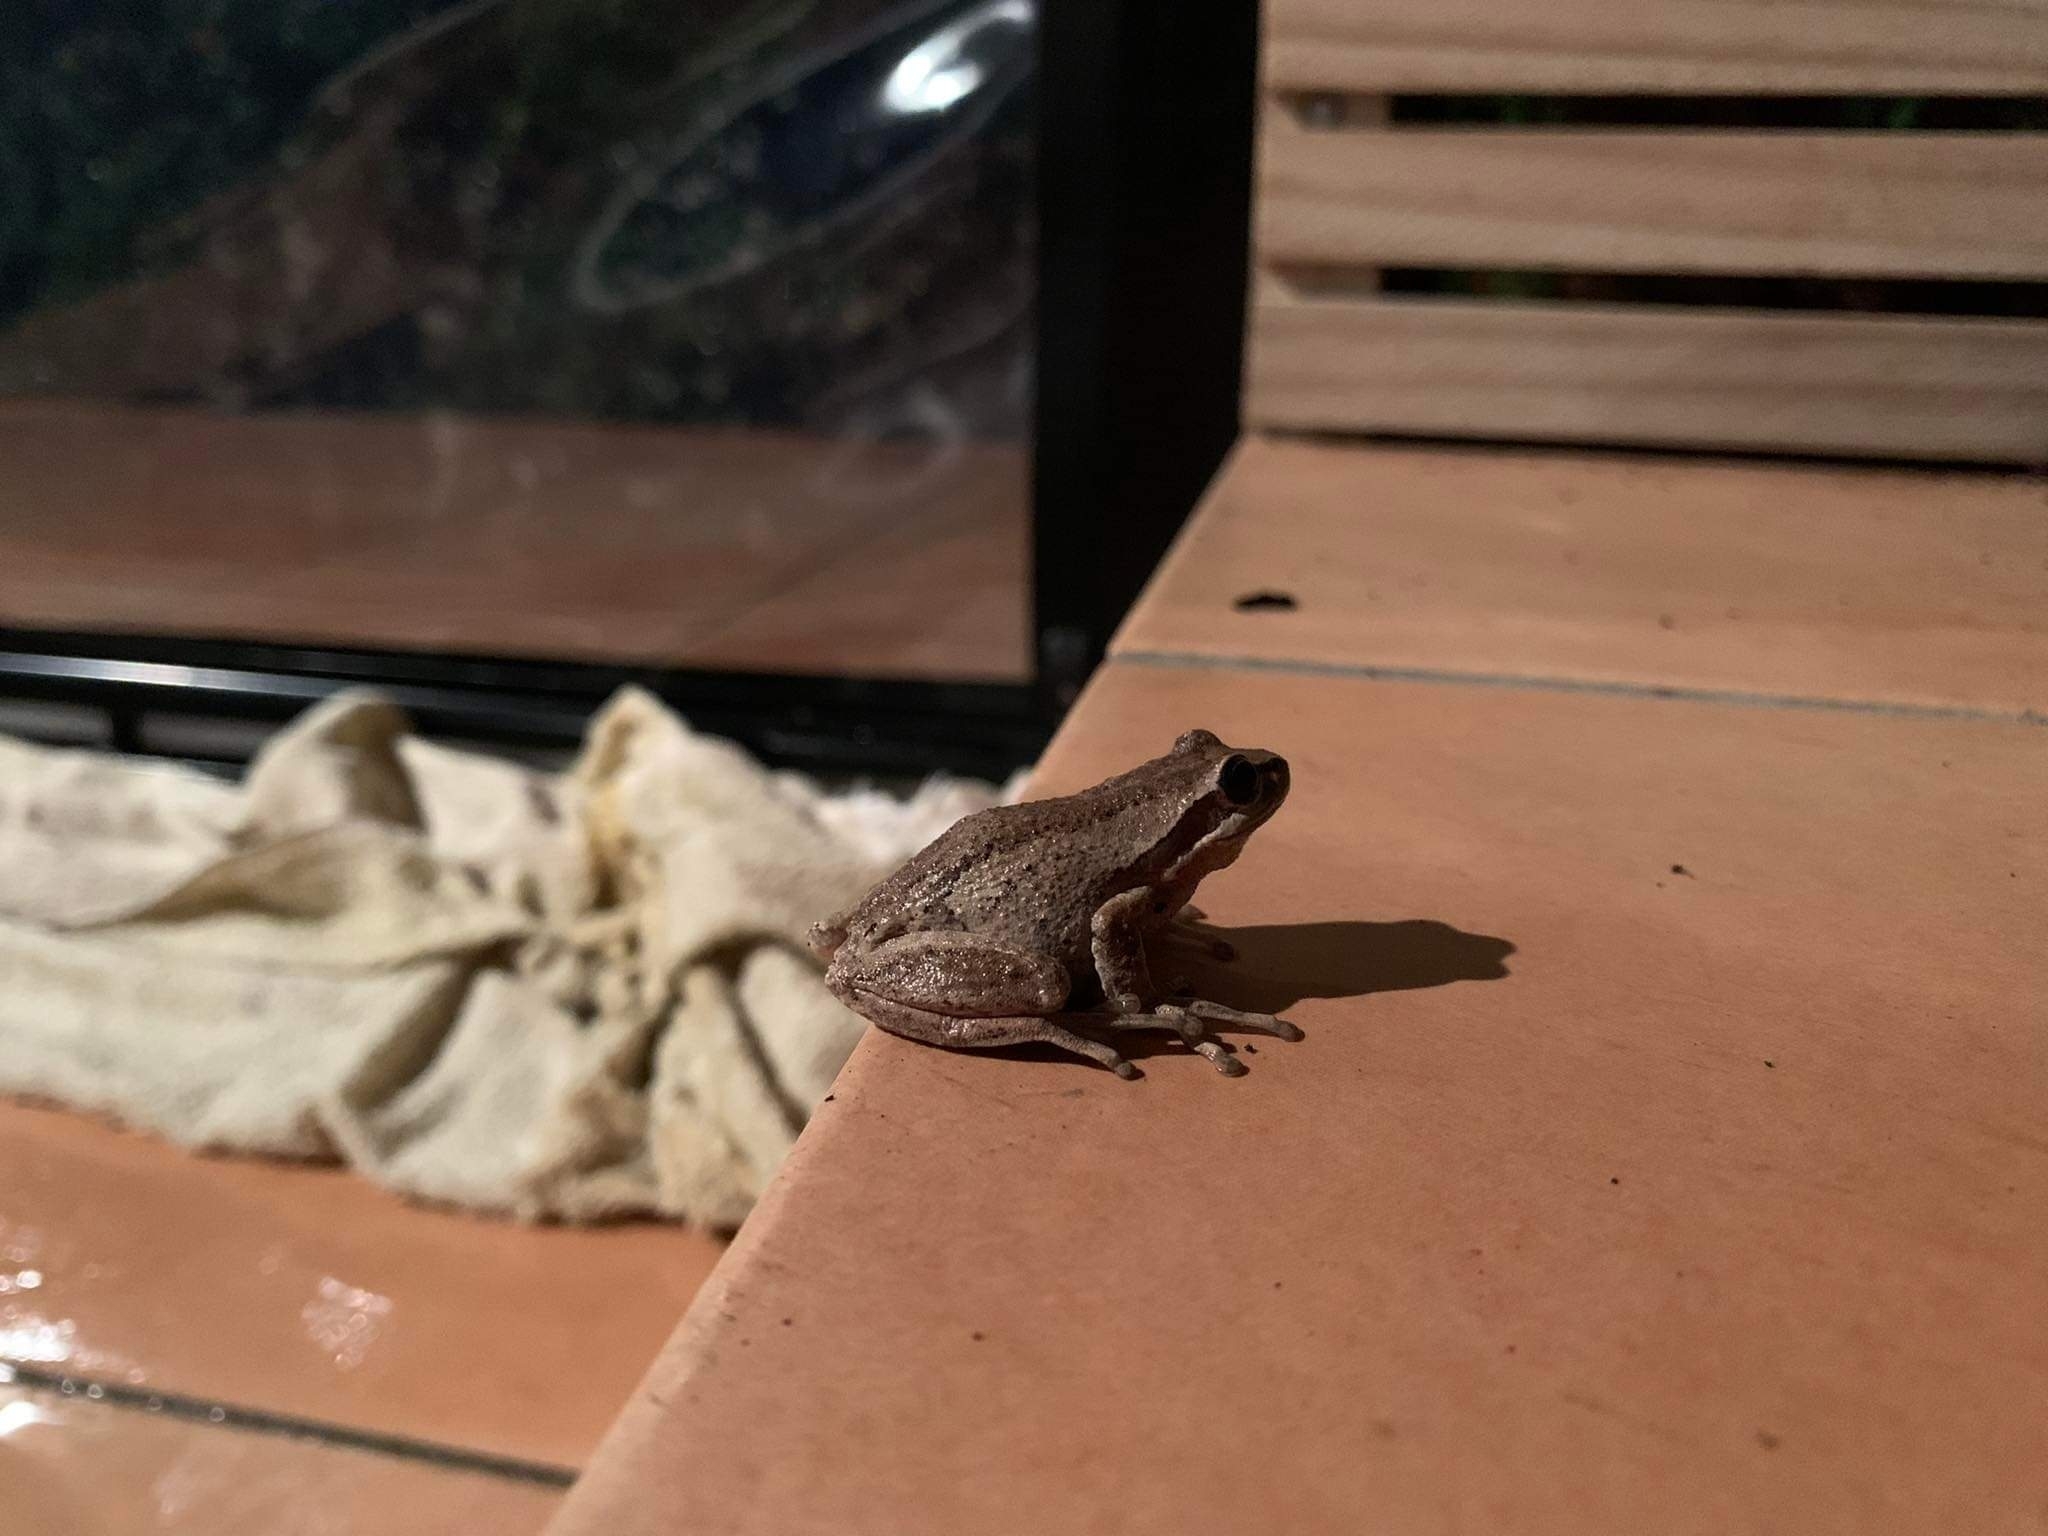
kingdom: Animalia
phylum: Chordata
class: Amphibia
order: Anura
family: Pelodryadidae
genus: Litoria
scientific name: Litoria ewingii
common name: Southern brown tree frog
